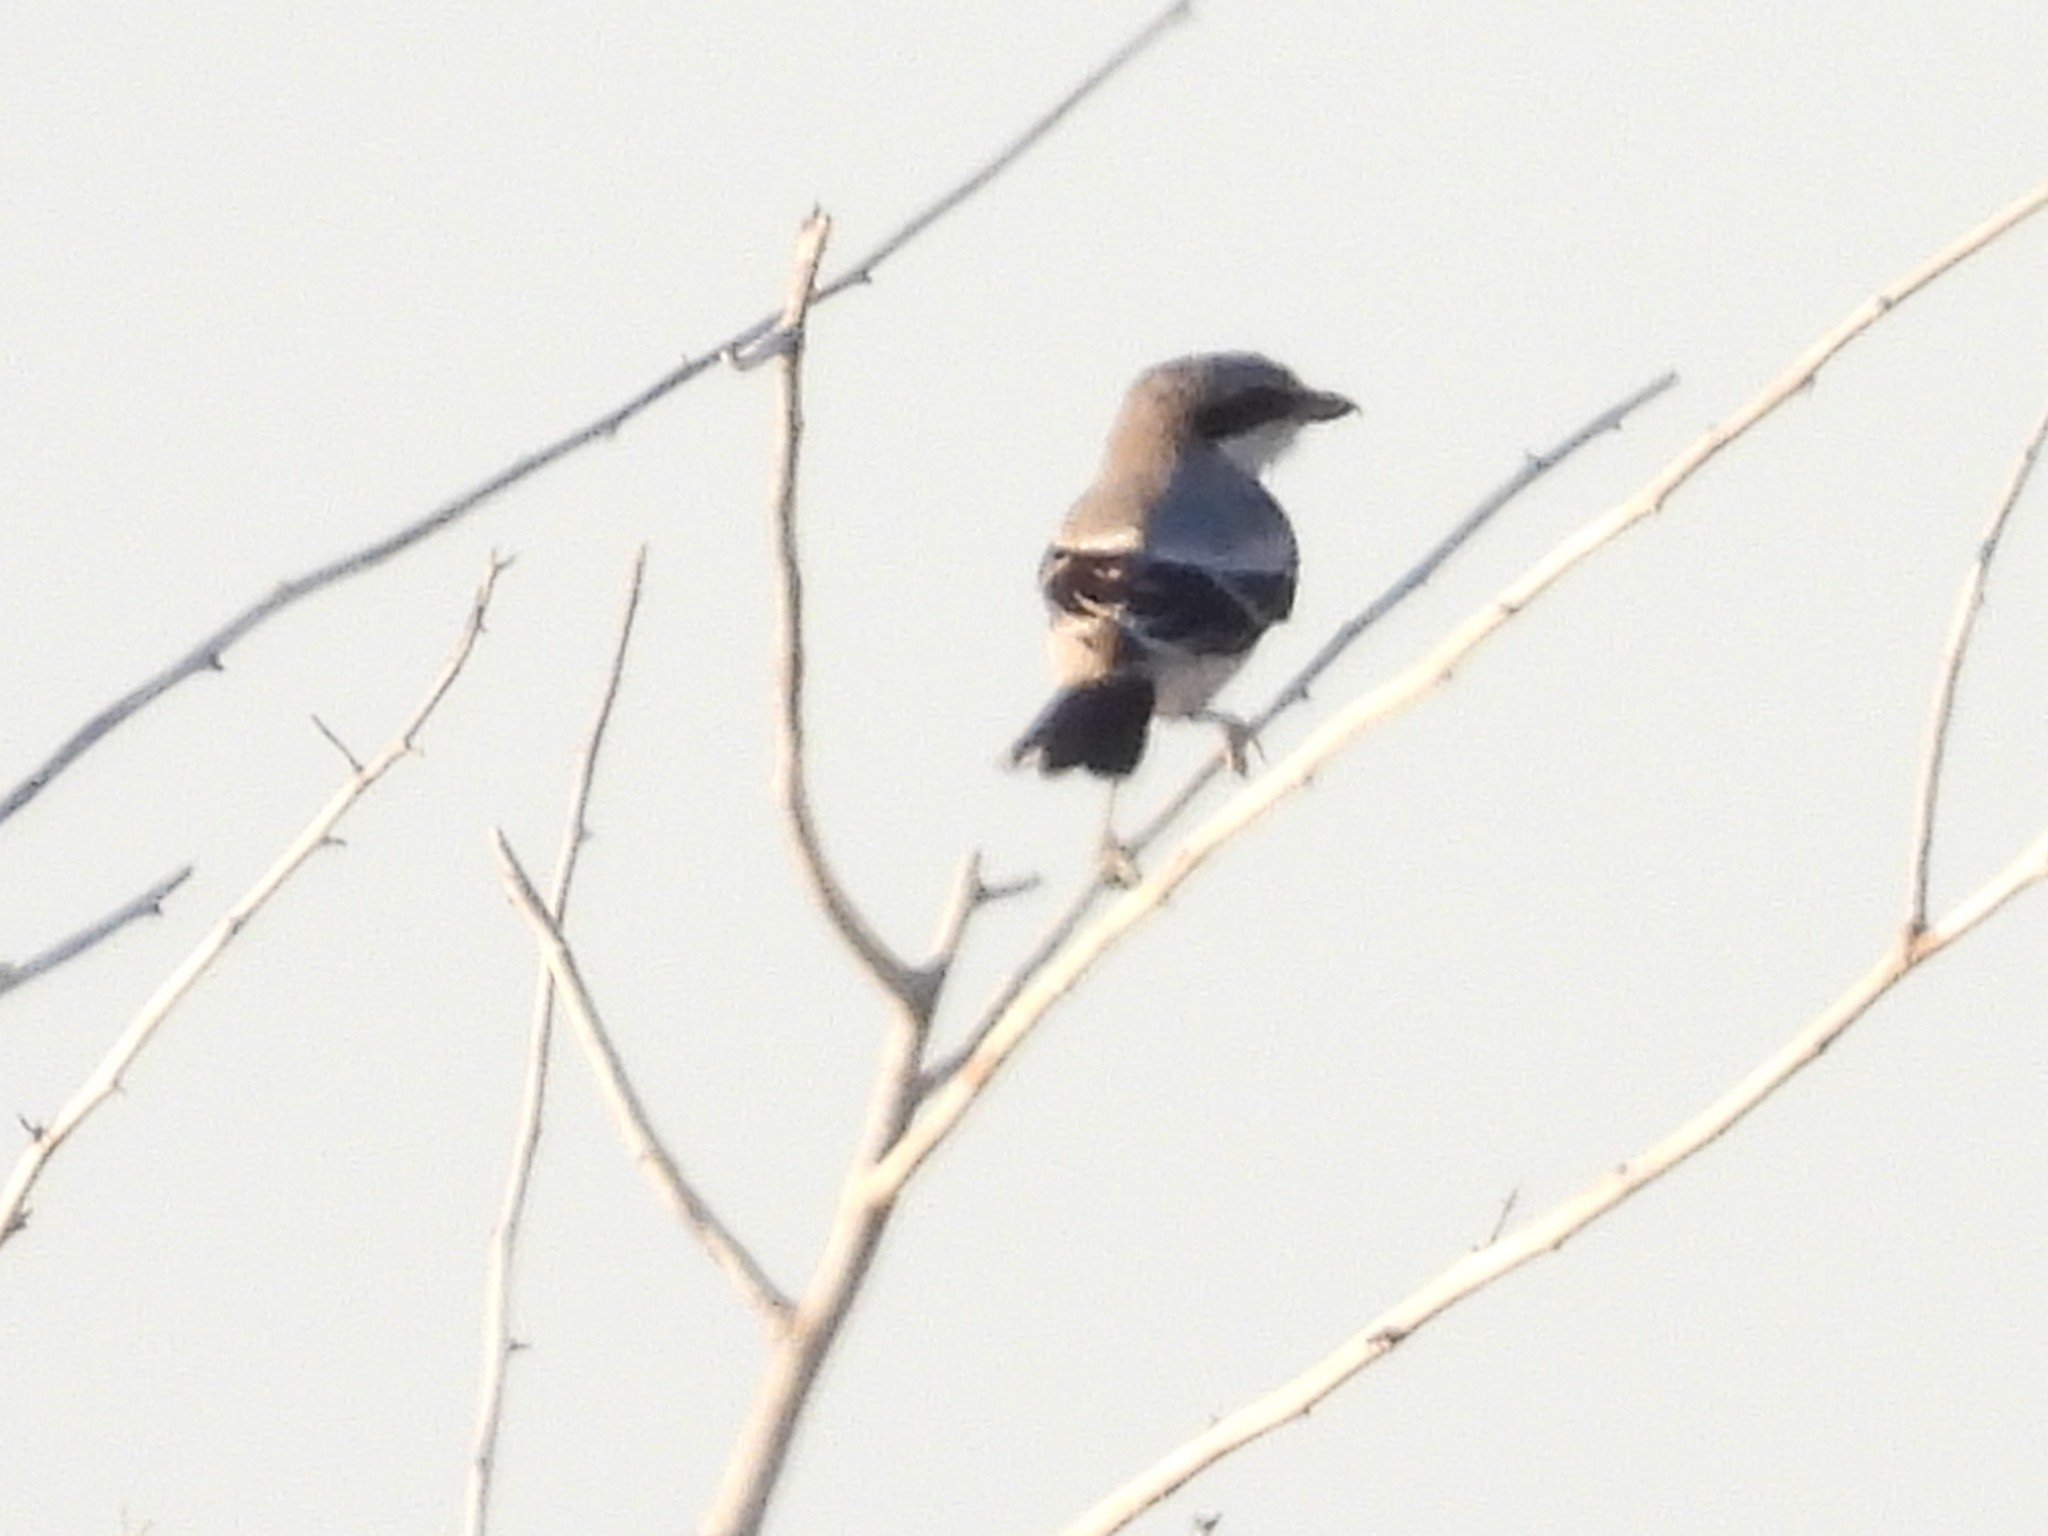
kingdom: Animalia
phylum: Chordata
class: Aves
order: Passeriformes
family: Laniidae
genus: Lanius
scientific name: Lanius ludovicianus
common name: Loggerhead shrike
